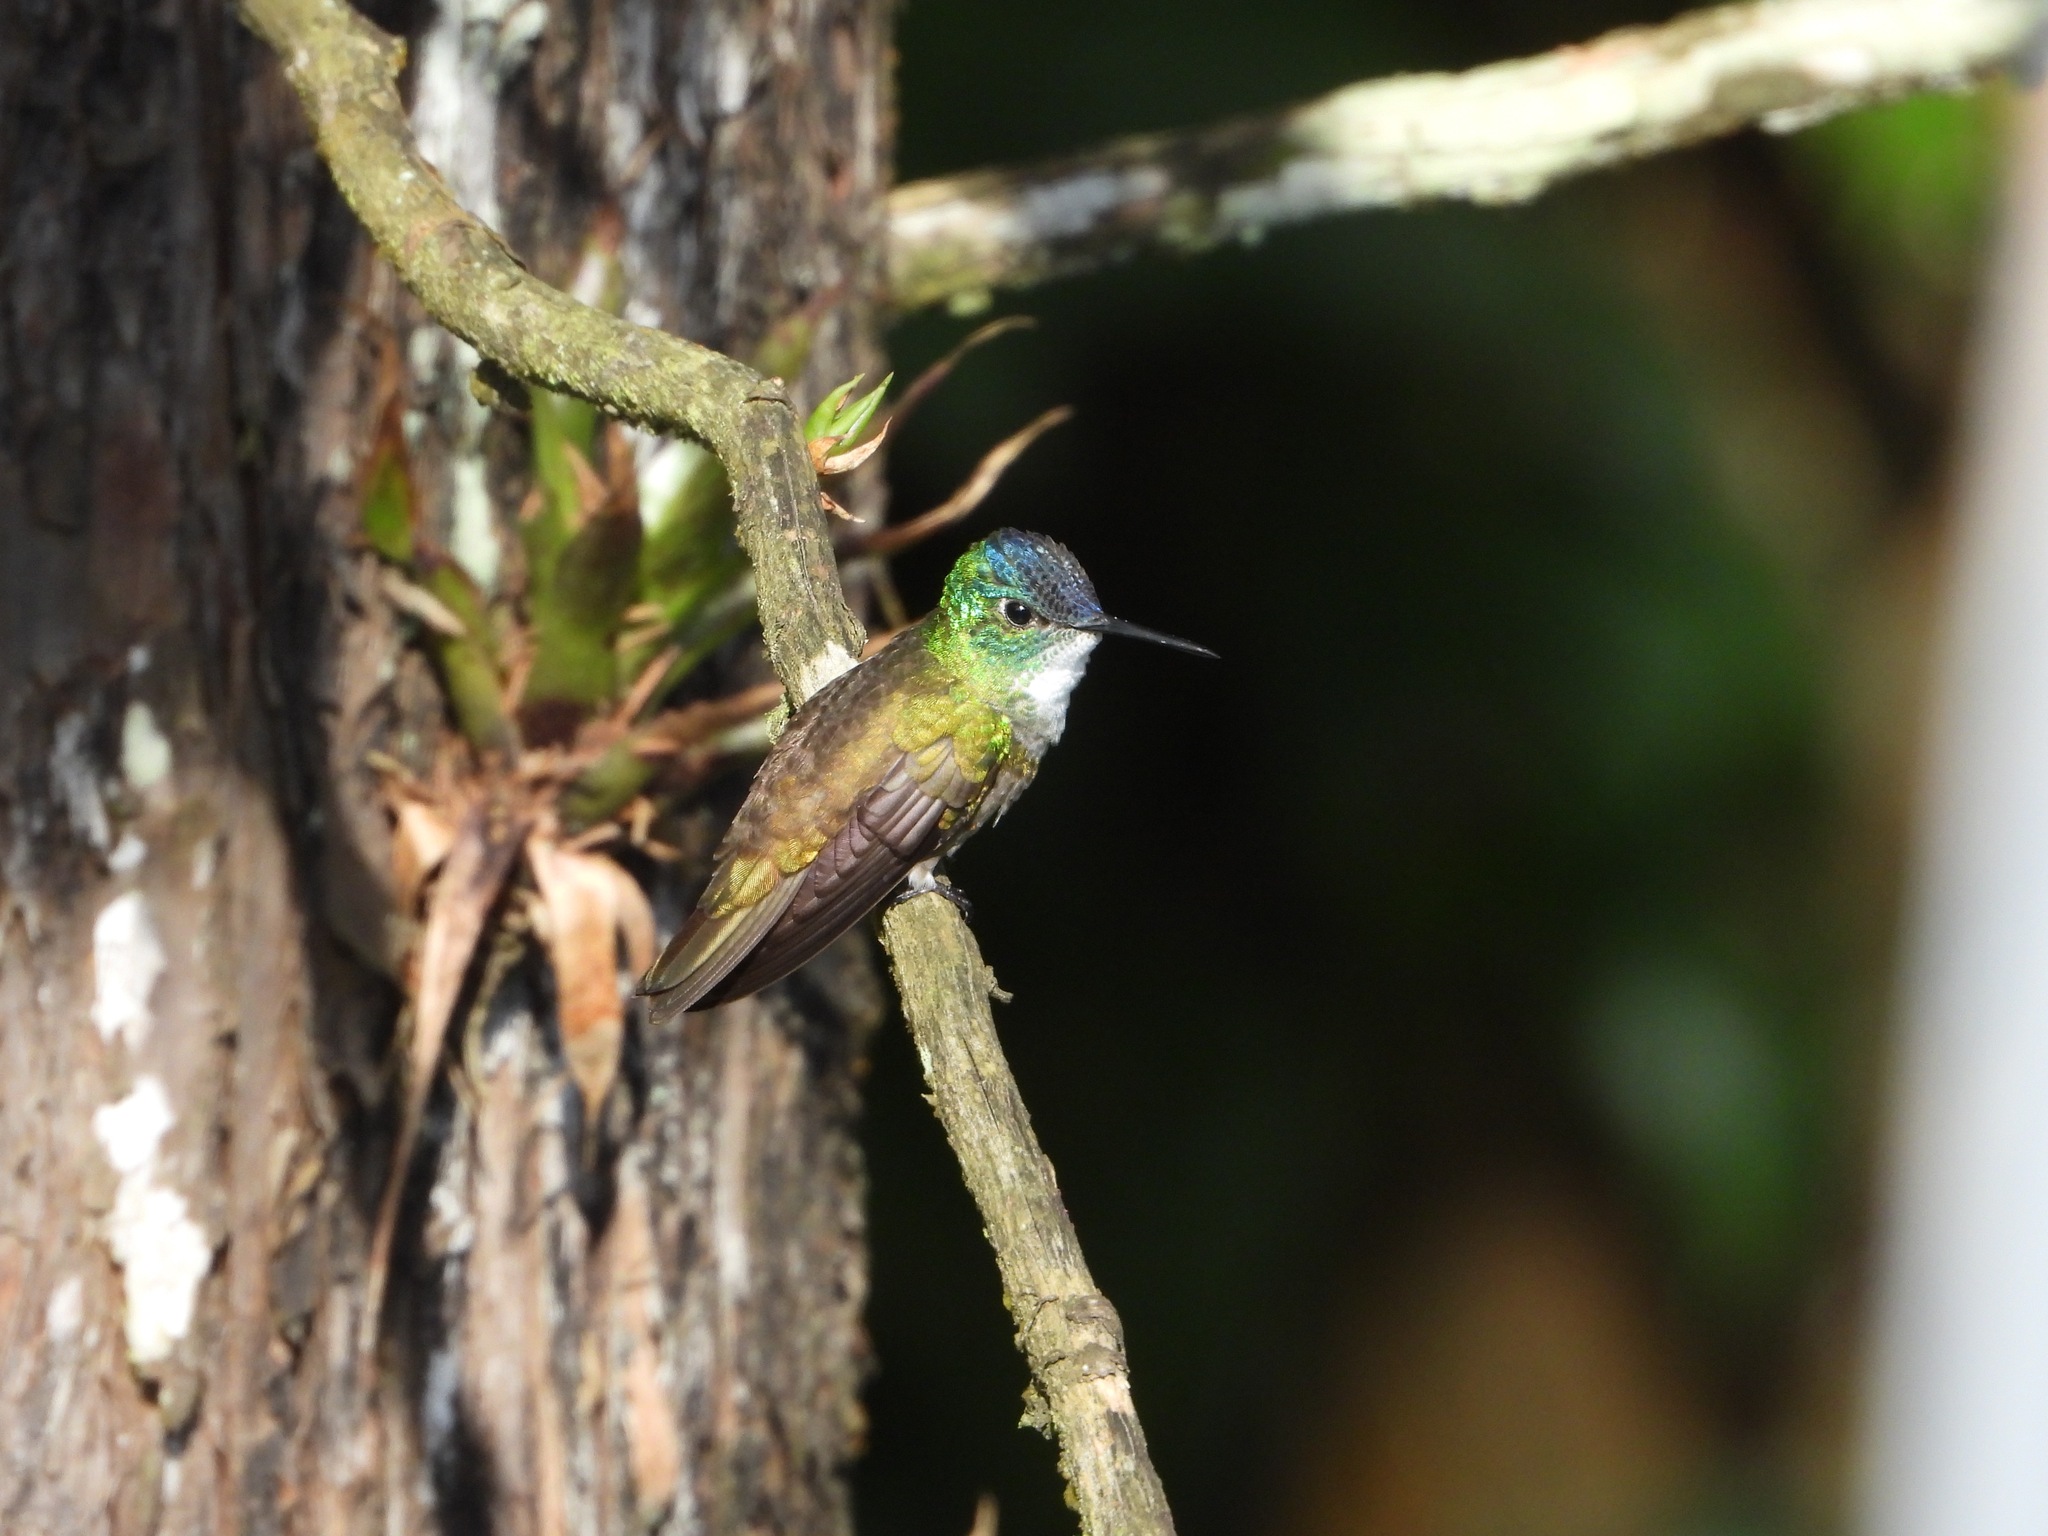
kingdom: Animalia
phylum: Chordata
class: Aves
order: Apodiformes
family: Trochilidae
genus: Saucerottia
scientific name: Saucerottia cyanocephala
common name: Azure-crowned hummingbird
